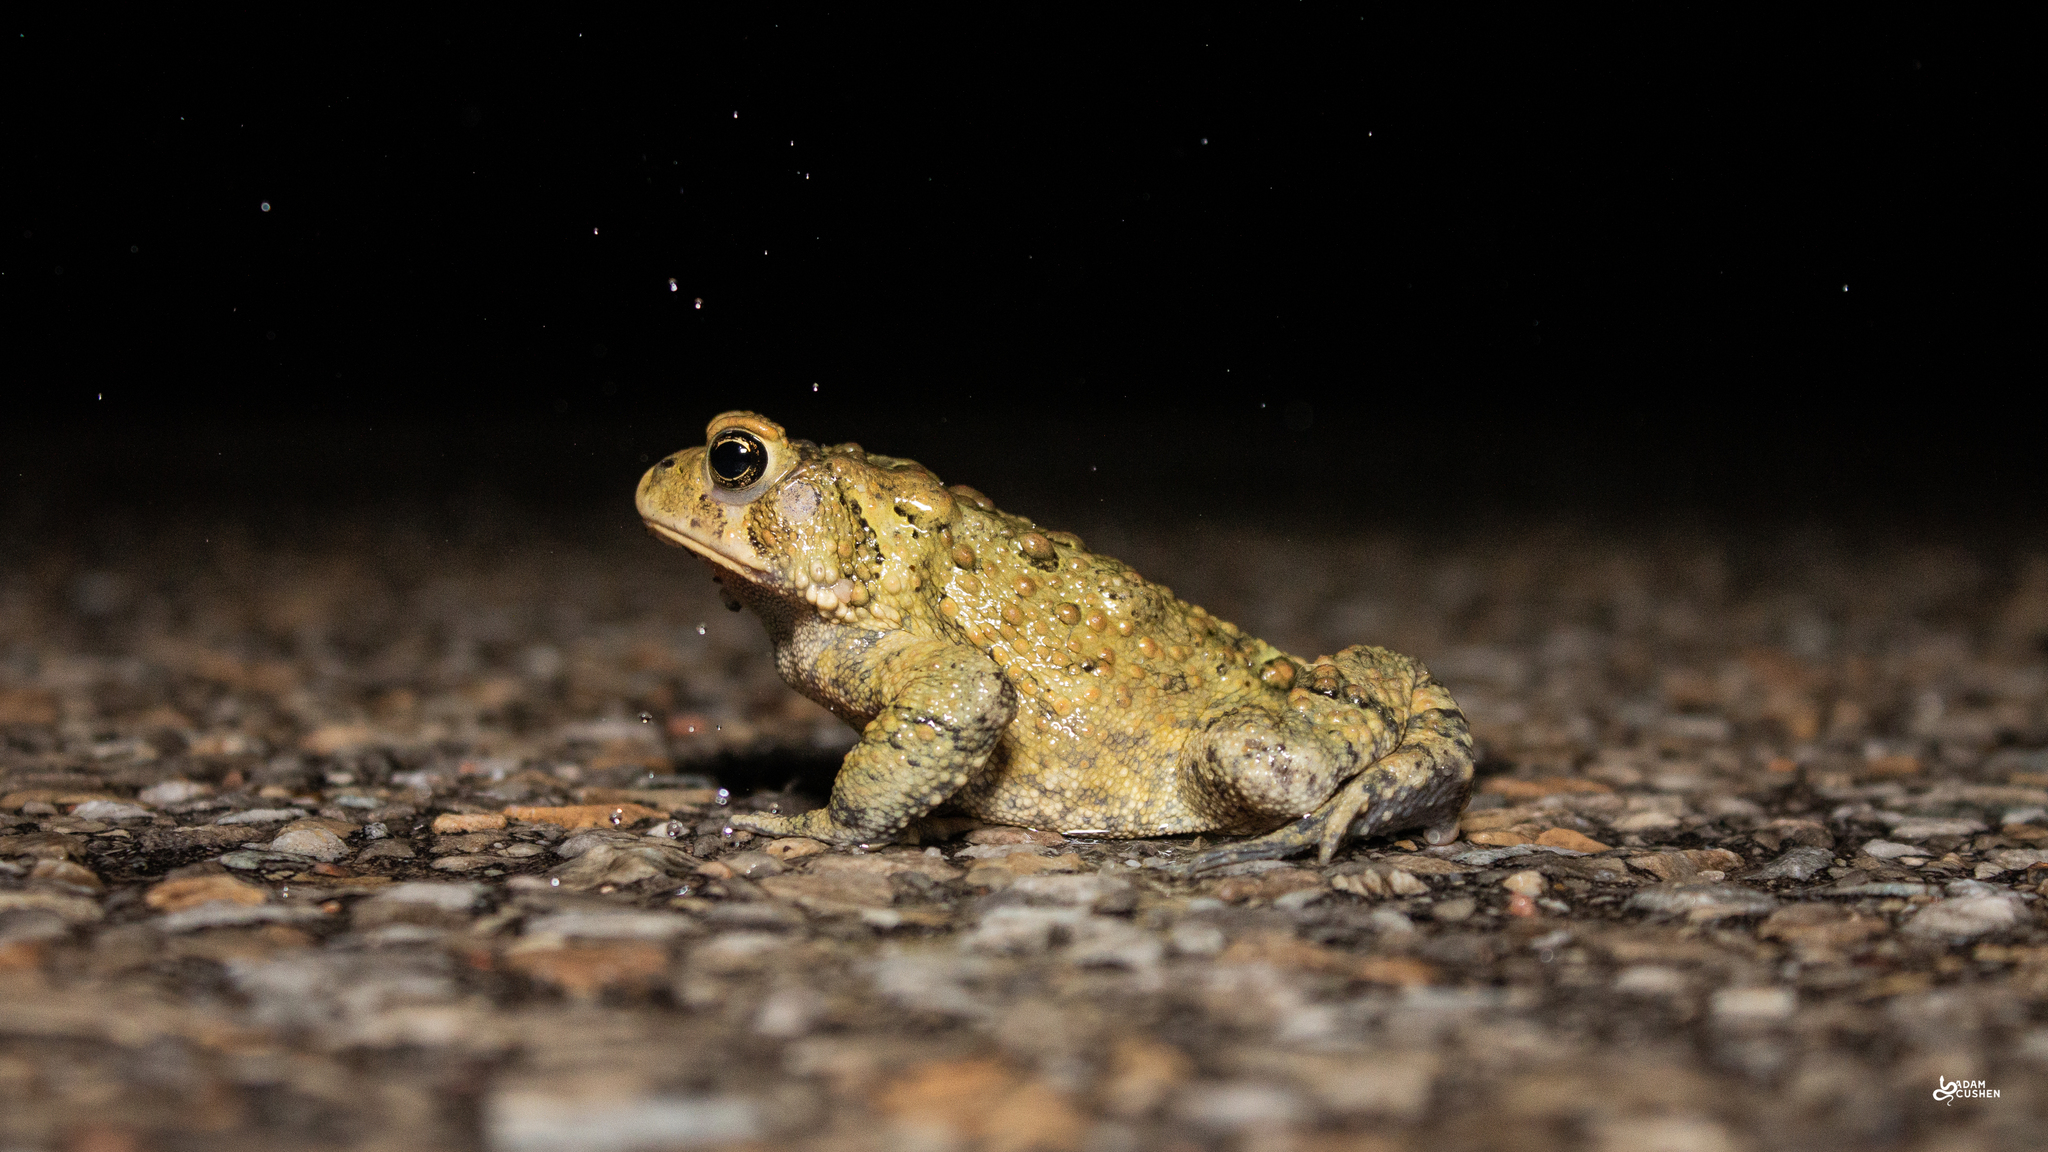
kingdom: Animalia
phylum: Chordata
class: Amphibia
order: Anura
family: Bufonidae
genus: Anaxyrus
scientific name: Anaxyrus americanus
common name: American toad
